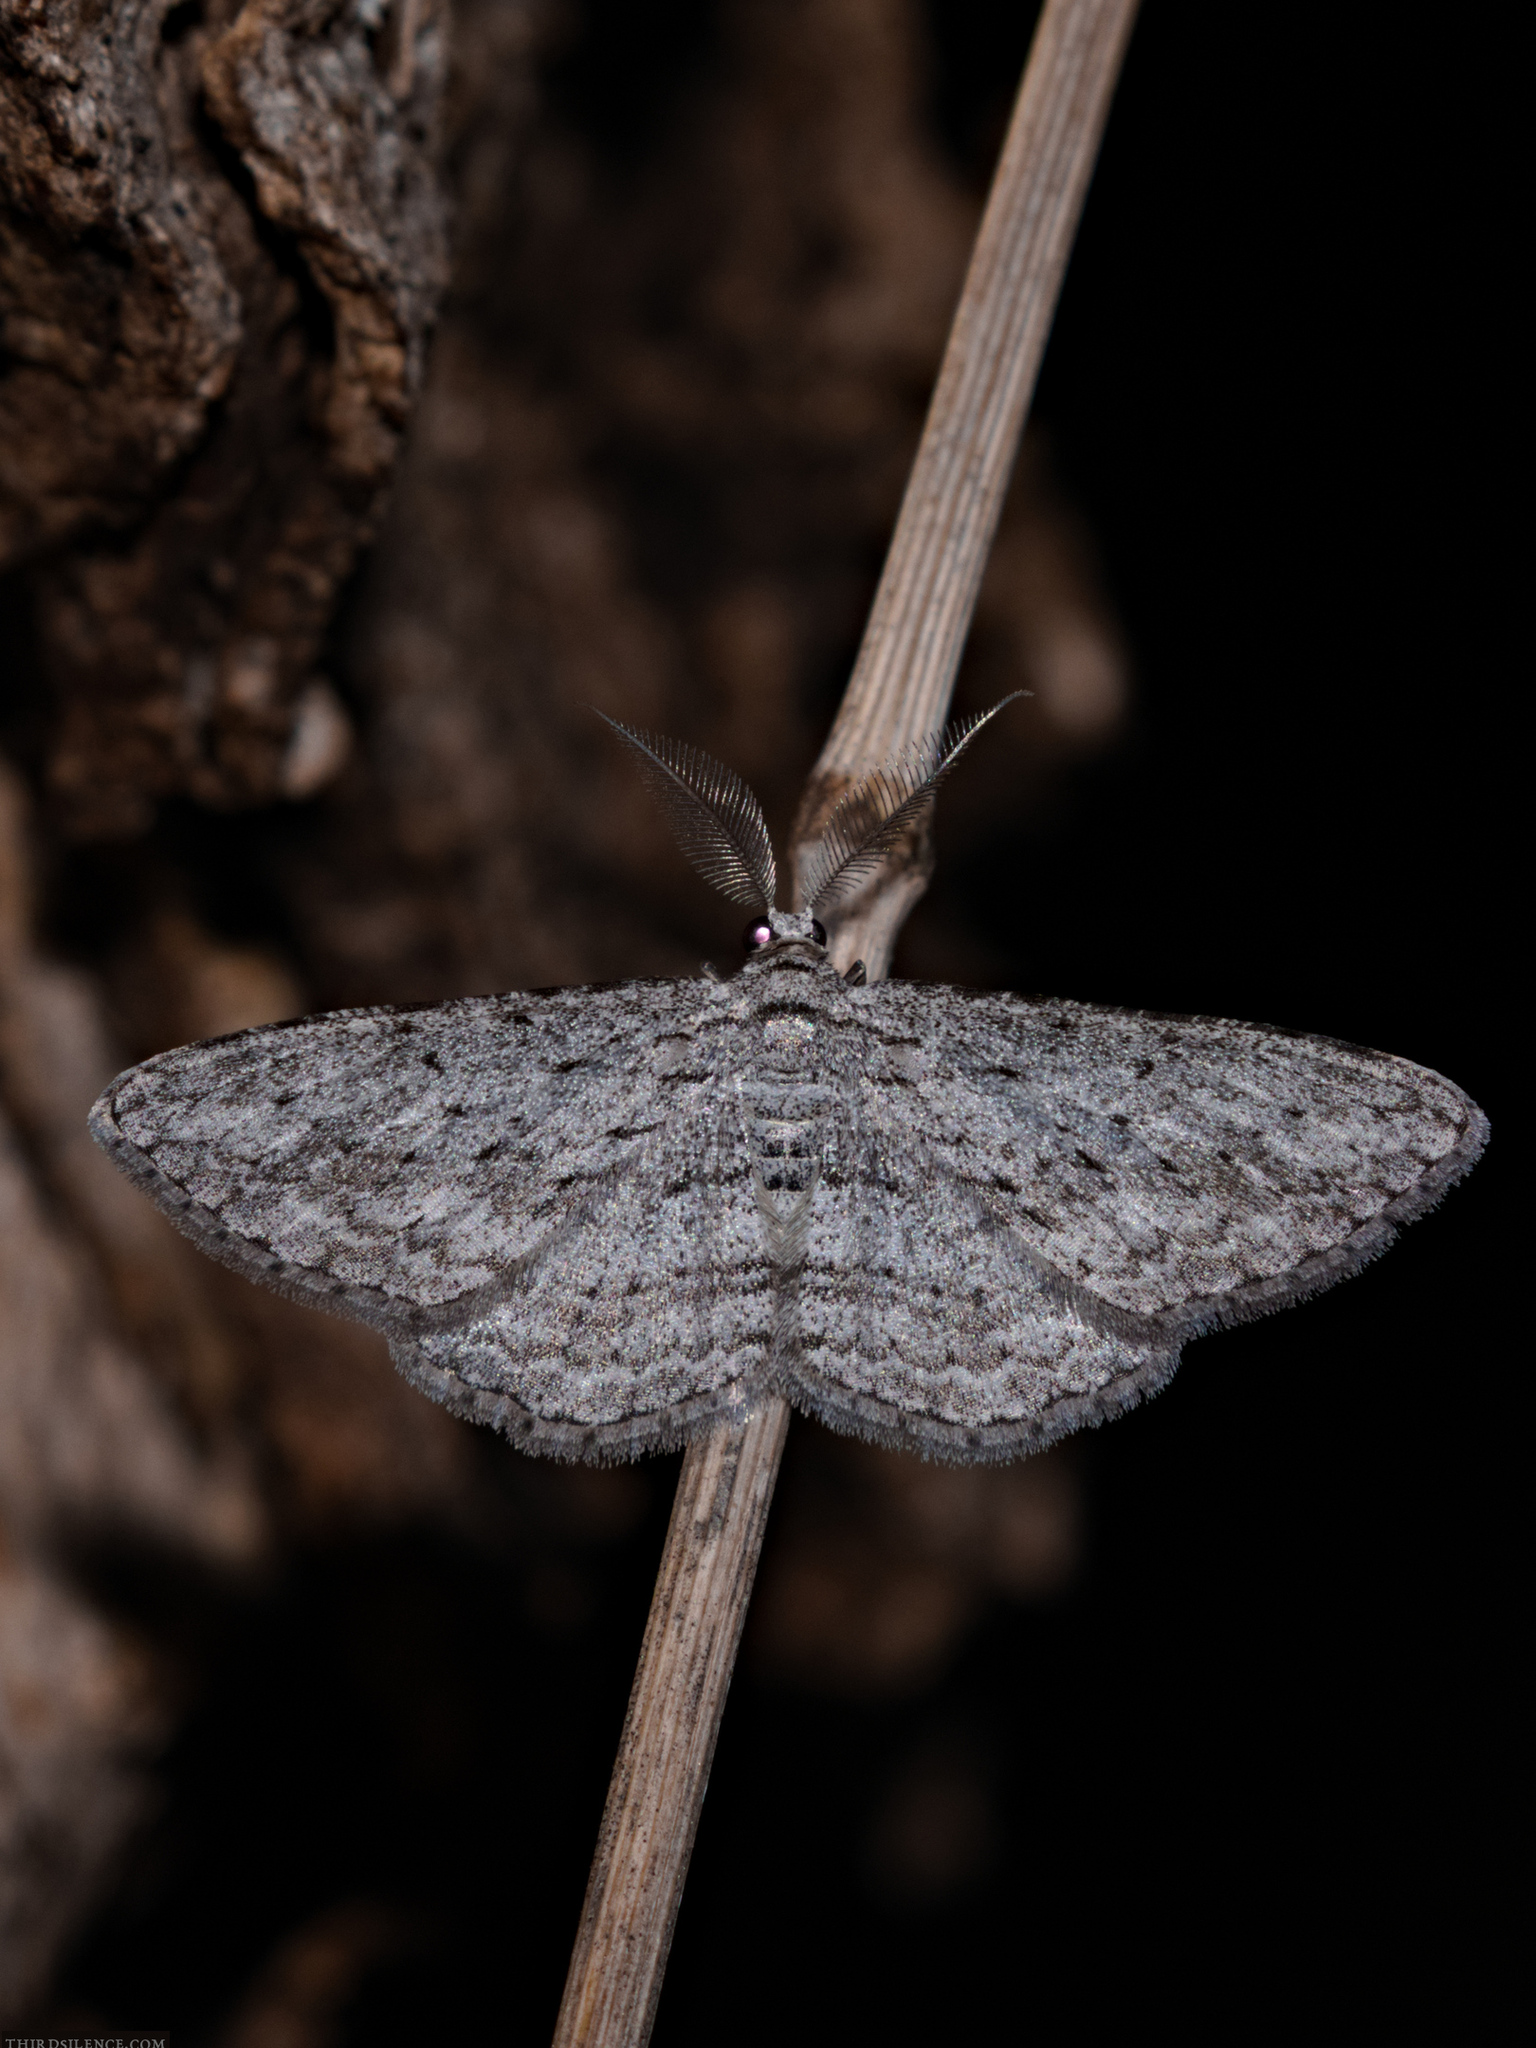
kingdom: Animalia
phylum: Arthropoda
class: Insecta
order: Lepidoptera
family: Geometridae
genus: Phelotis
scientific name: Phelotis cognata
